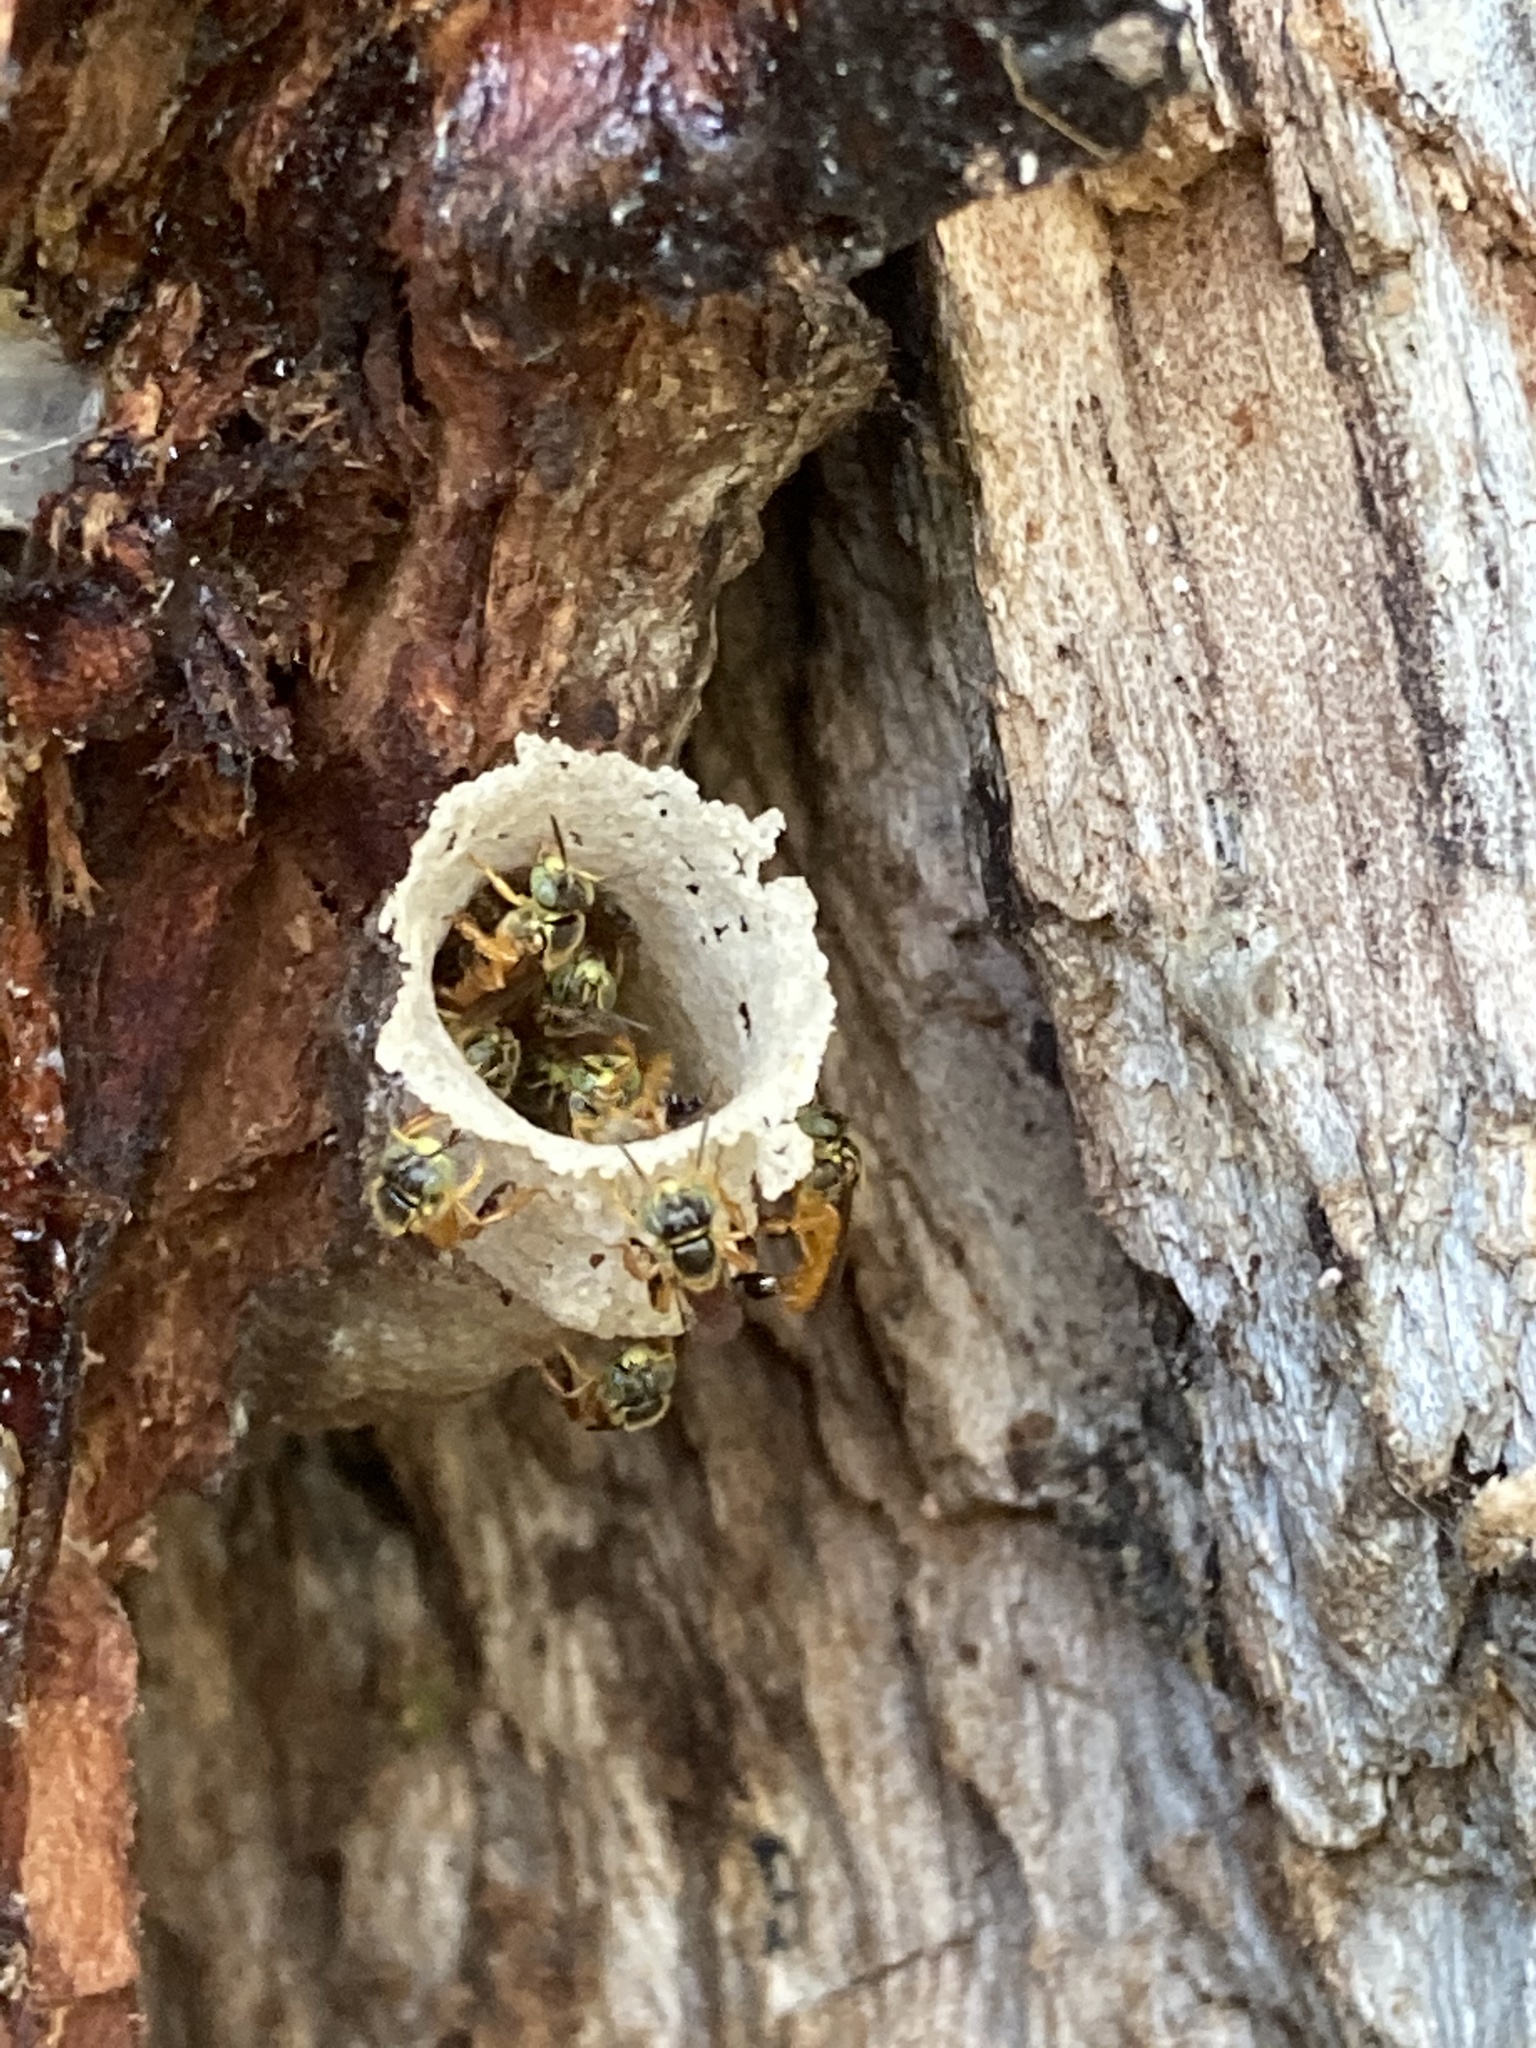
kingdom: Animalia
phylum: Arthropoda
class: Insecta
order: Hymenoptera
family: Apidae
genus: Tetragonisca
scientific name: Tetragonisca angustula
